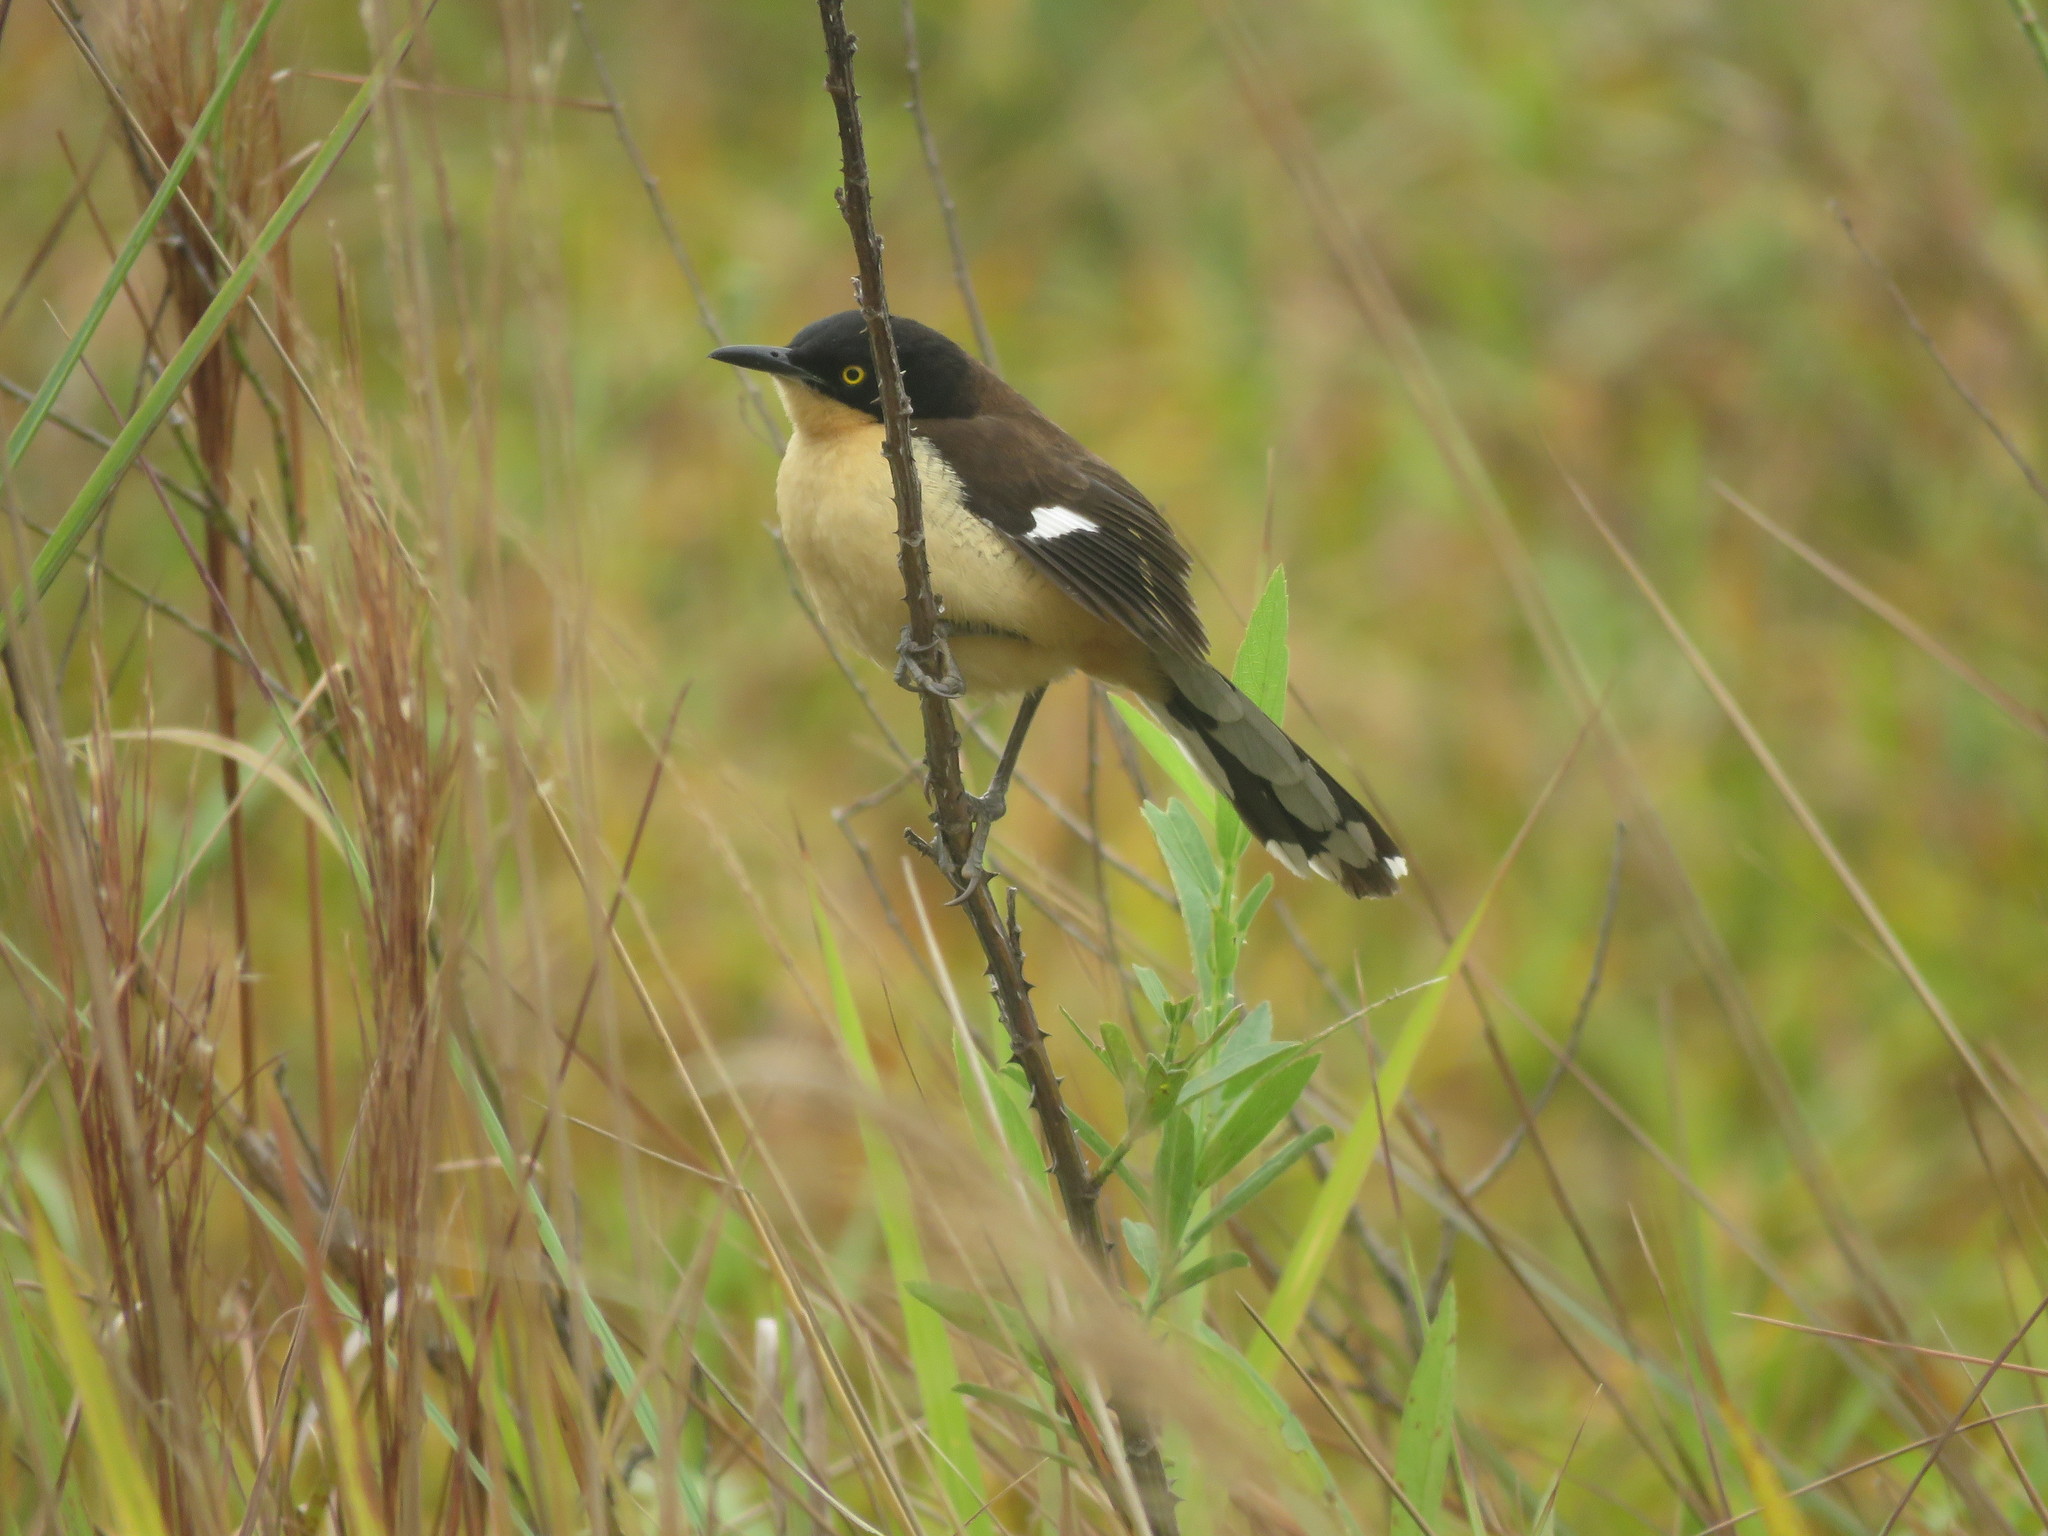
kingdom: Animalia
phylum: Chordata
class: Aves
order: Passeriformes
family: Donacobiidae
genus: Donacobius
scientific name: Donacobius atricapilla
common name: Black-capped donacobius
